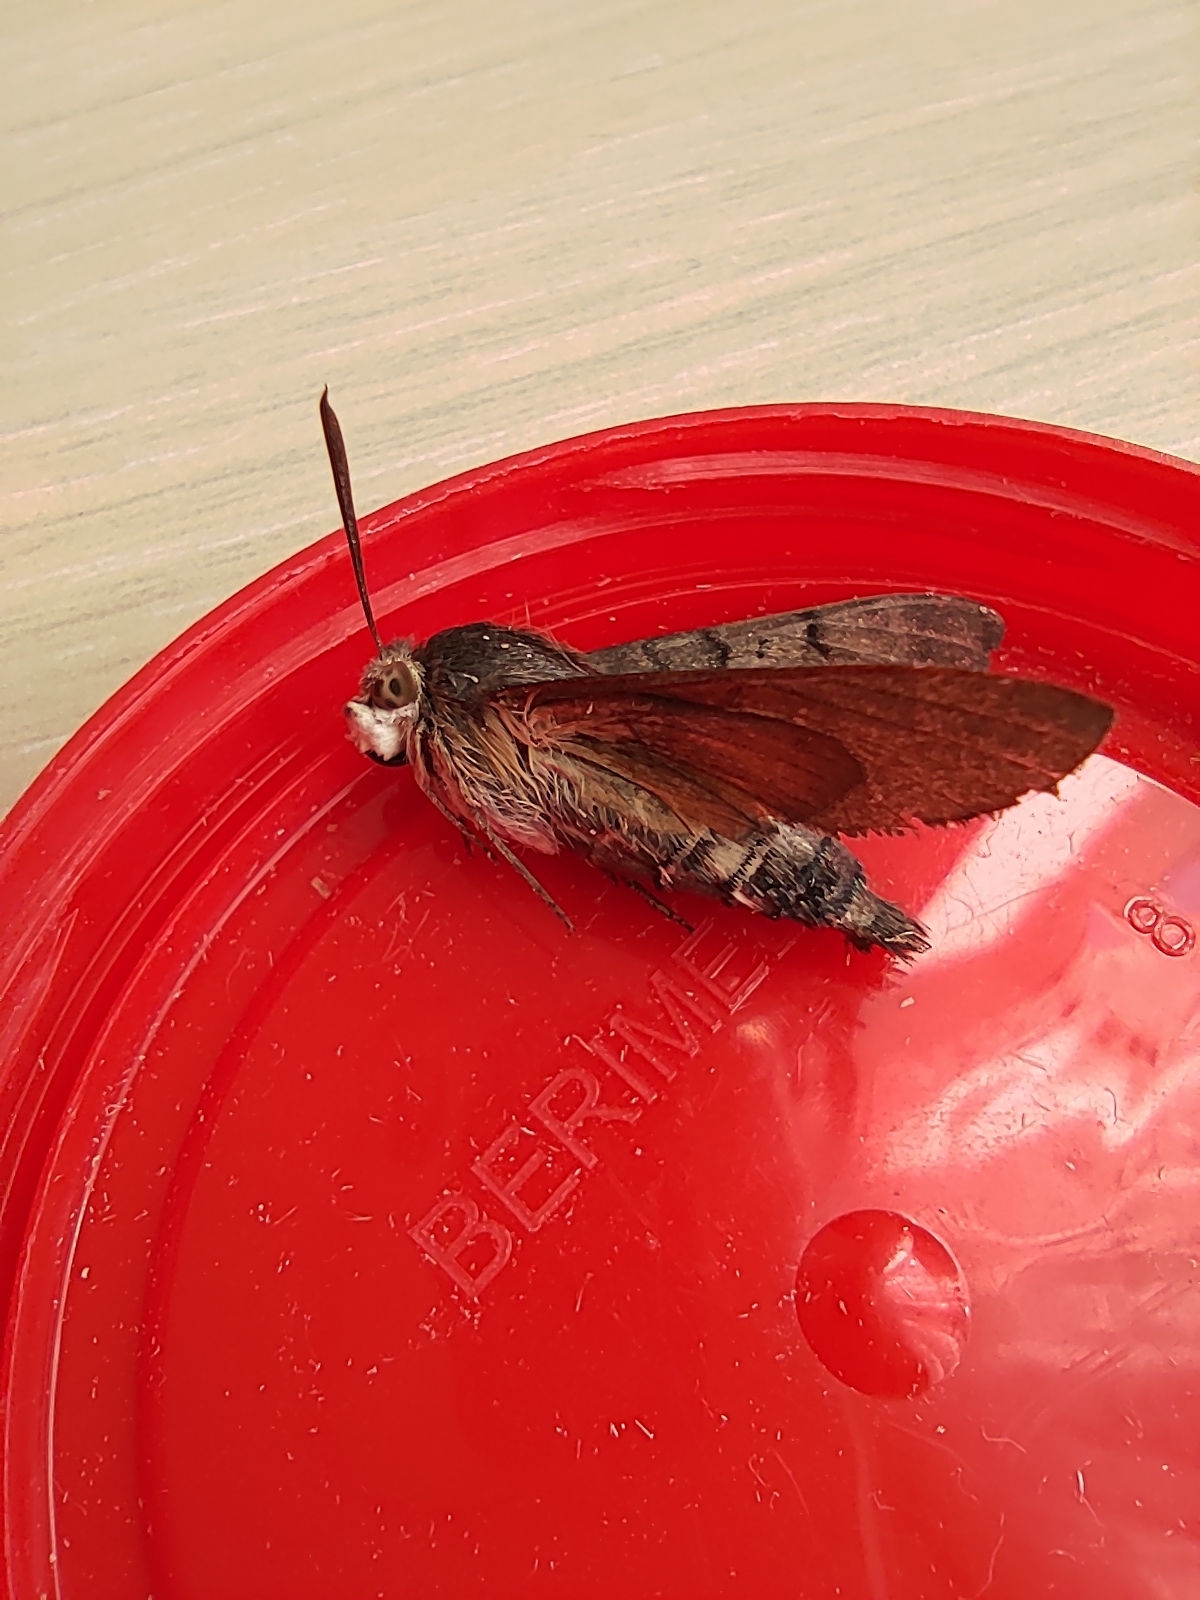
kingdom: Animalia
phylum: Arthropoda
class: Insecta
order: Lepidoptera
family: Sphingidae
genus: Macroglossum
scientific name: Macroglossum stellatarum
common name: Humming-bird hawk-moth
